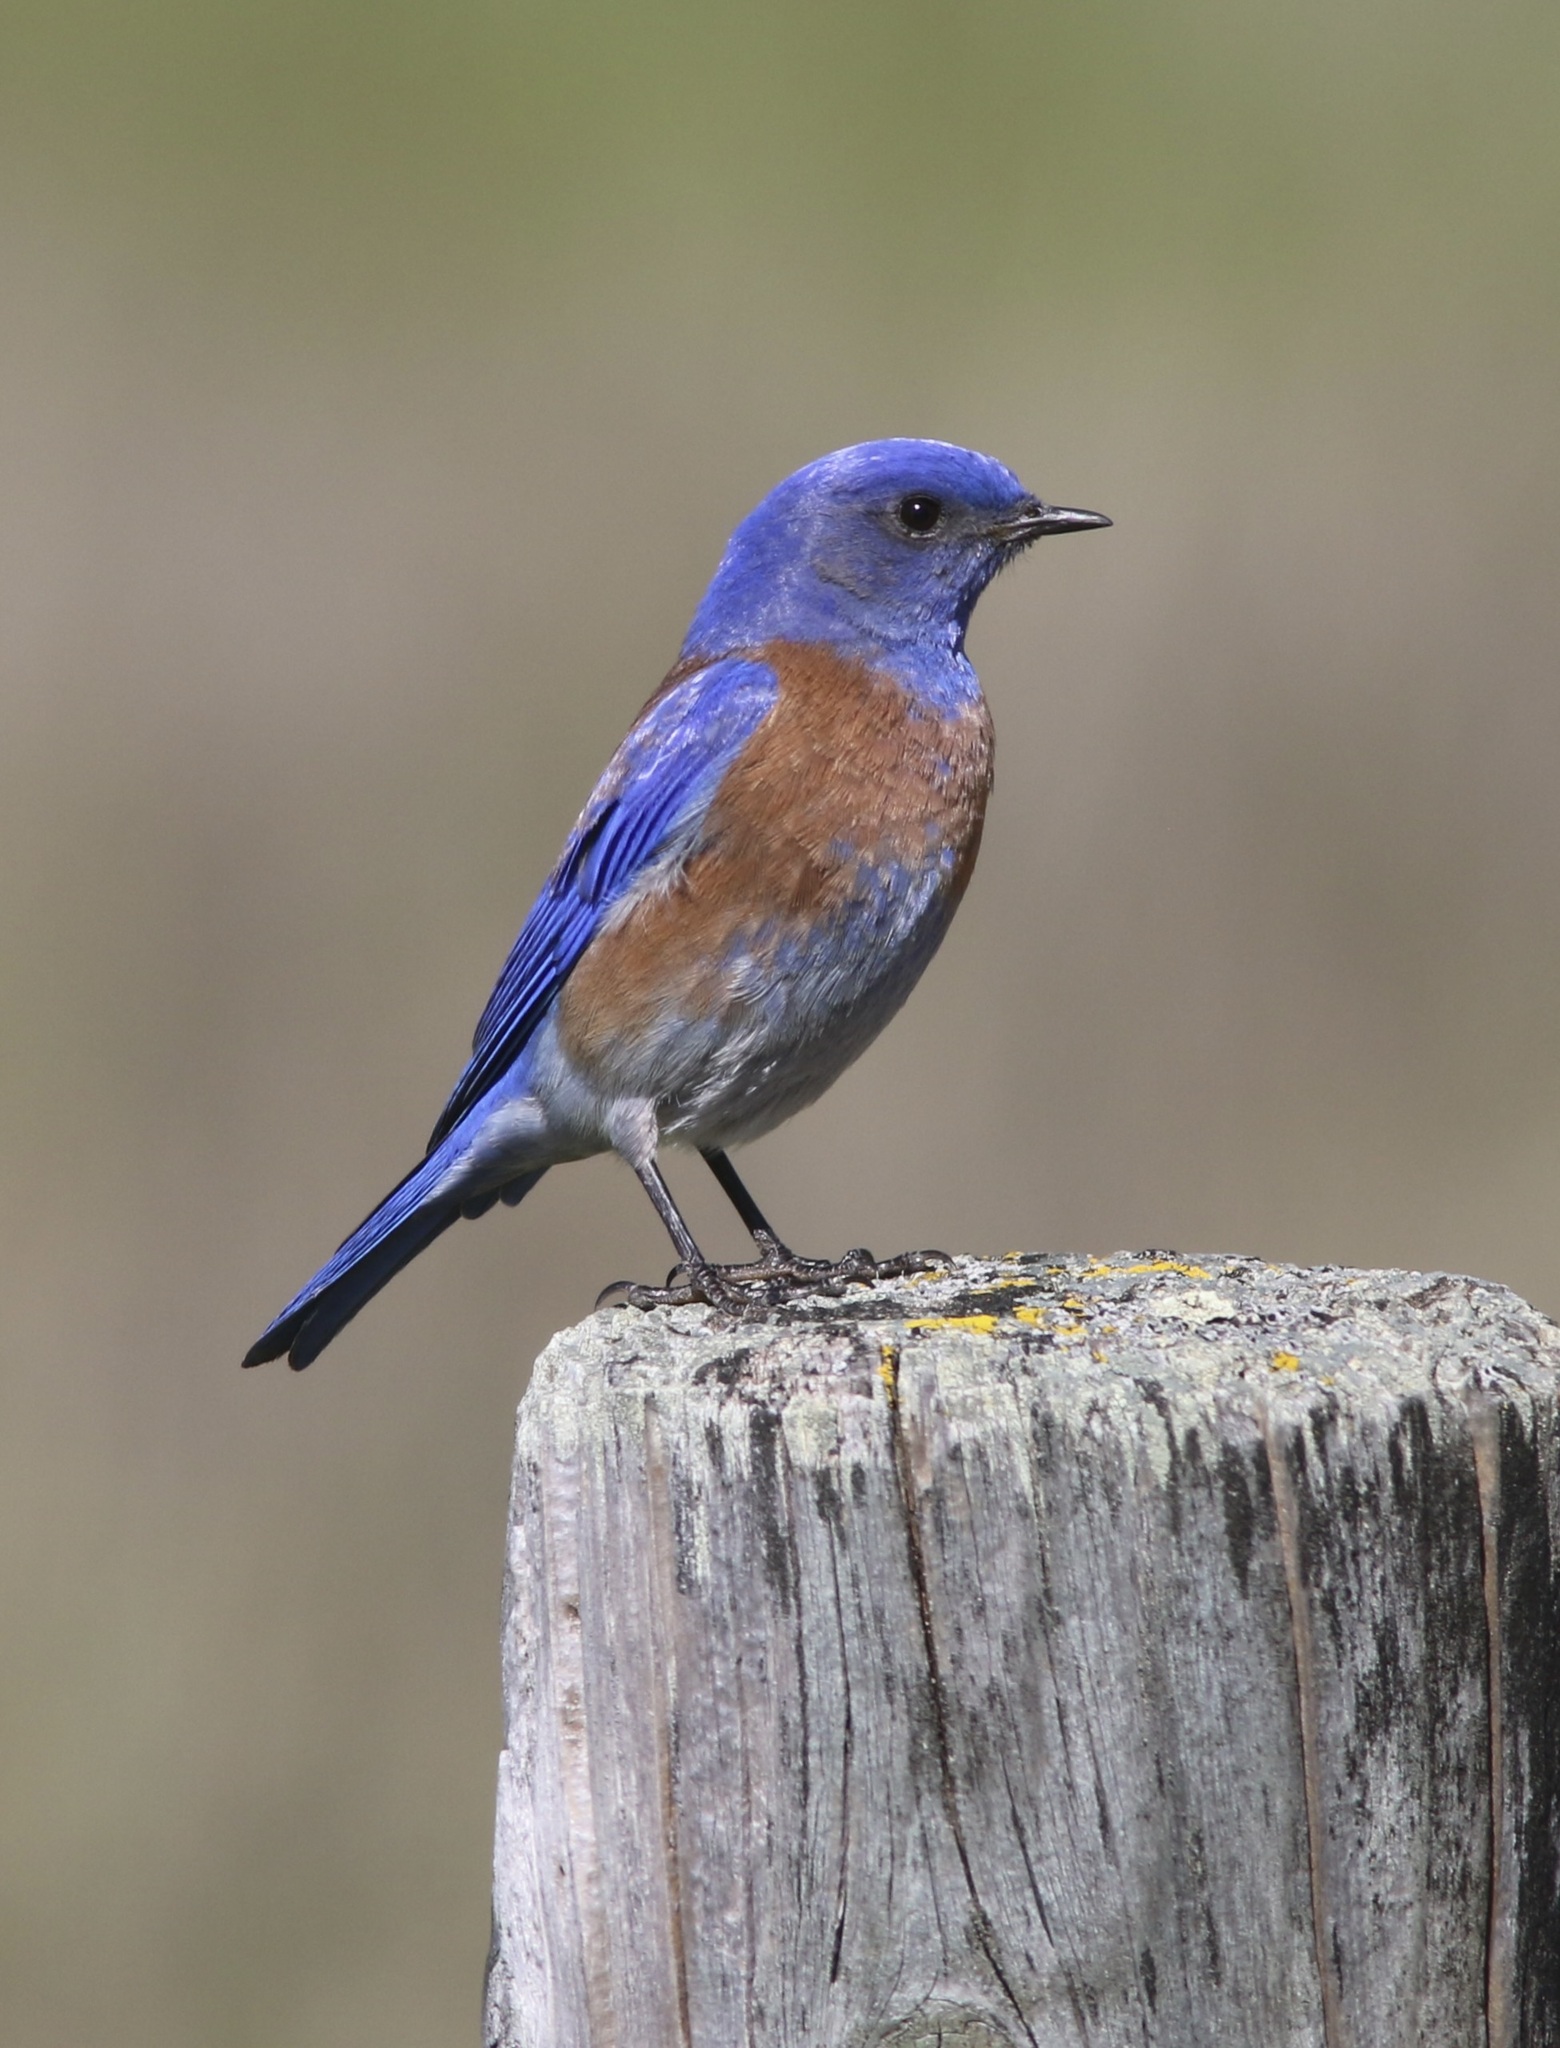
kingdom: Animalia
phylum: Chordata
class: Aves
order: Passeriformes
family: Turdidae
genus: Sialia
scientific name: Sialia mexicana
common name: Western bluebird
